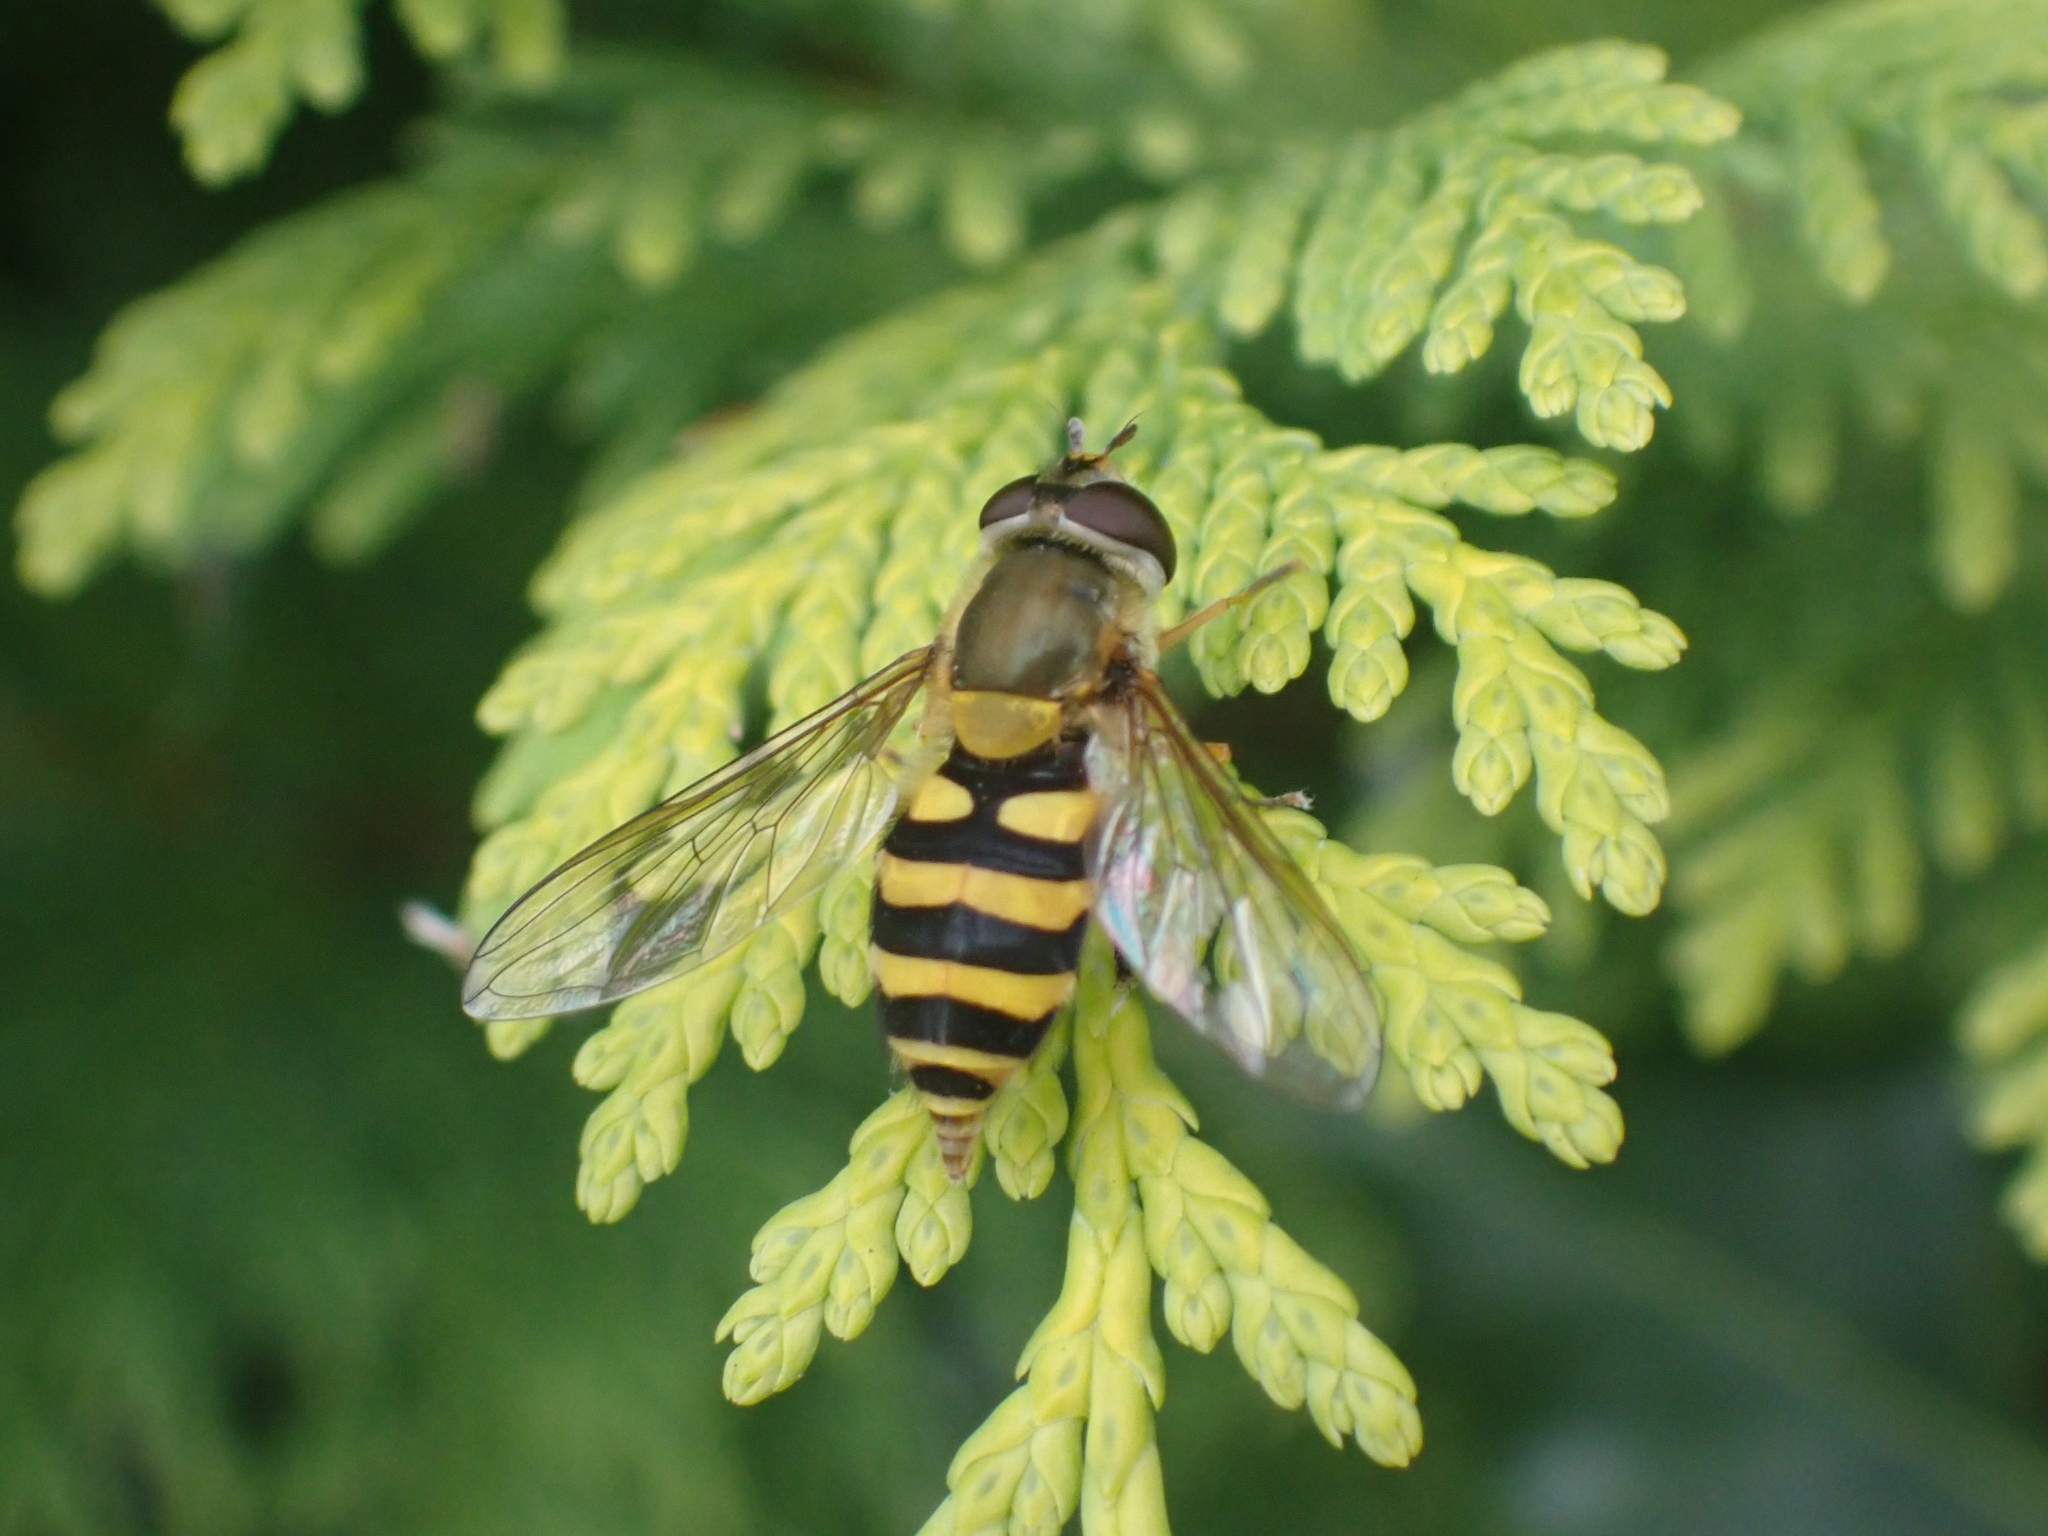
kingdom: Animalia
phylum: Arthropoda
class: Insecta
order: Diptera
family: Syrphidae
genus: Syrphus
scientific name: Syrphus
